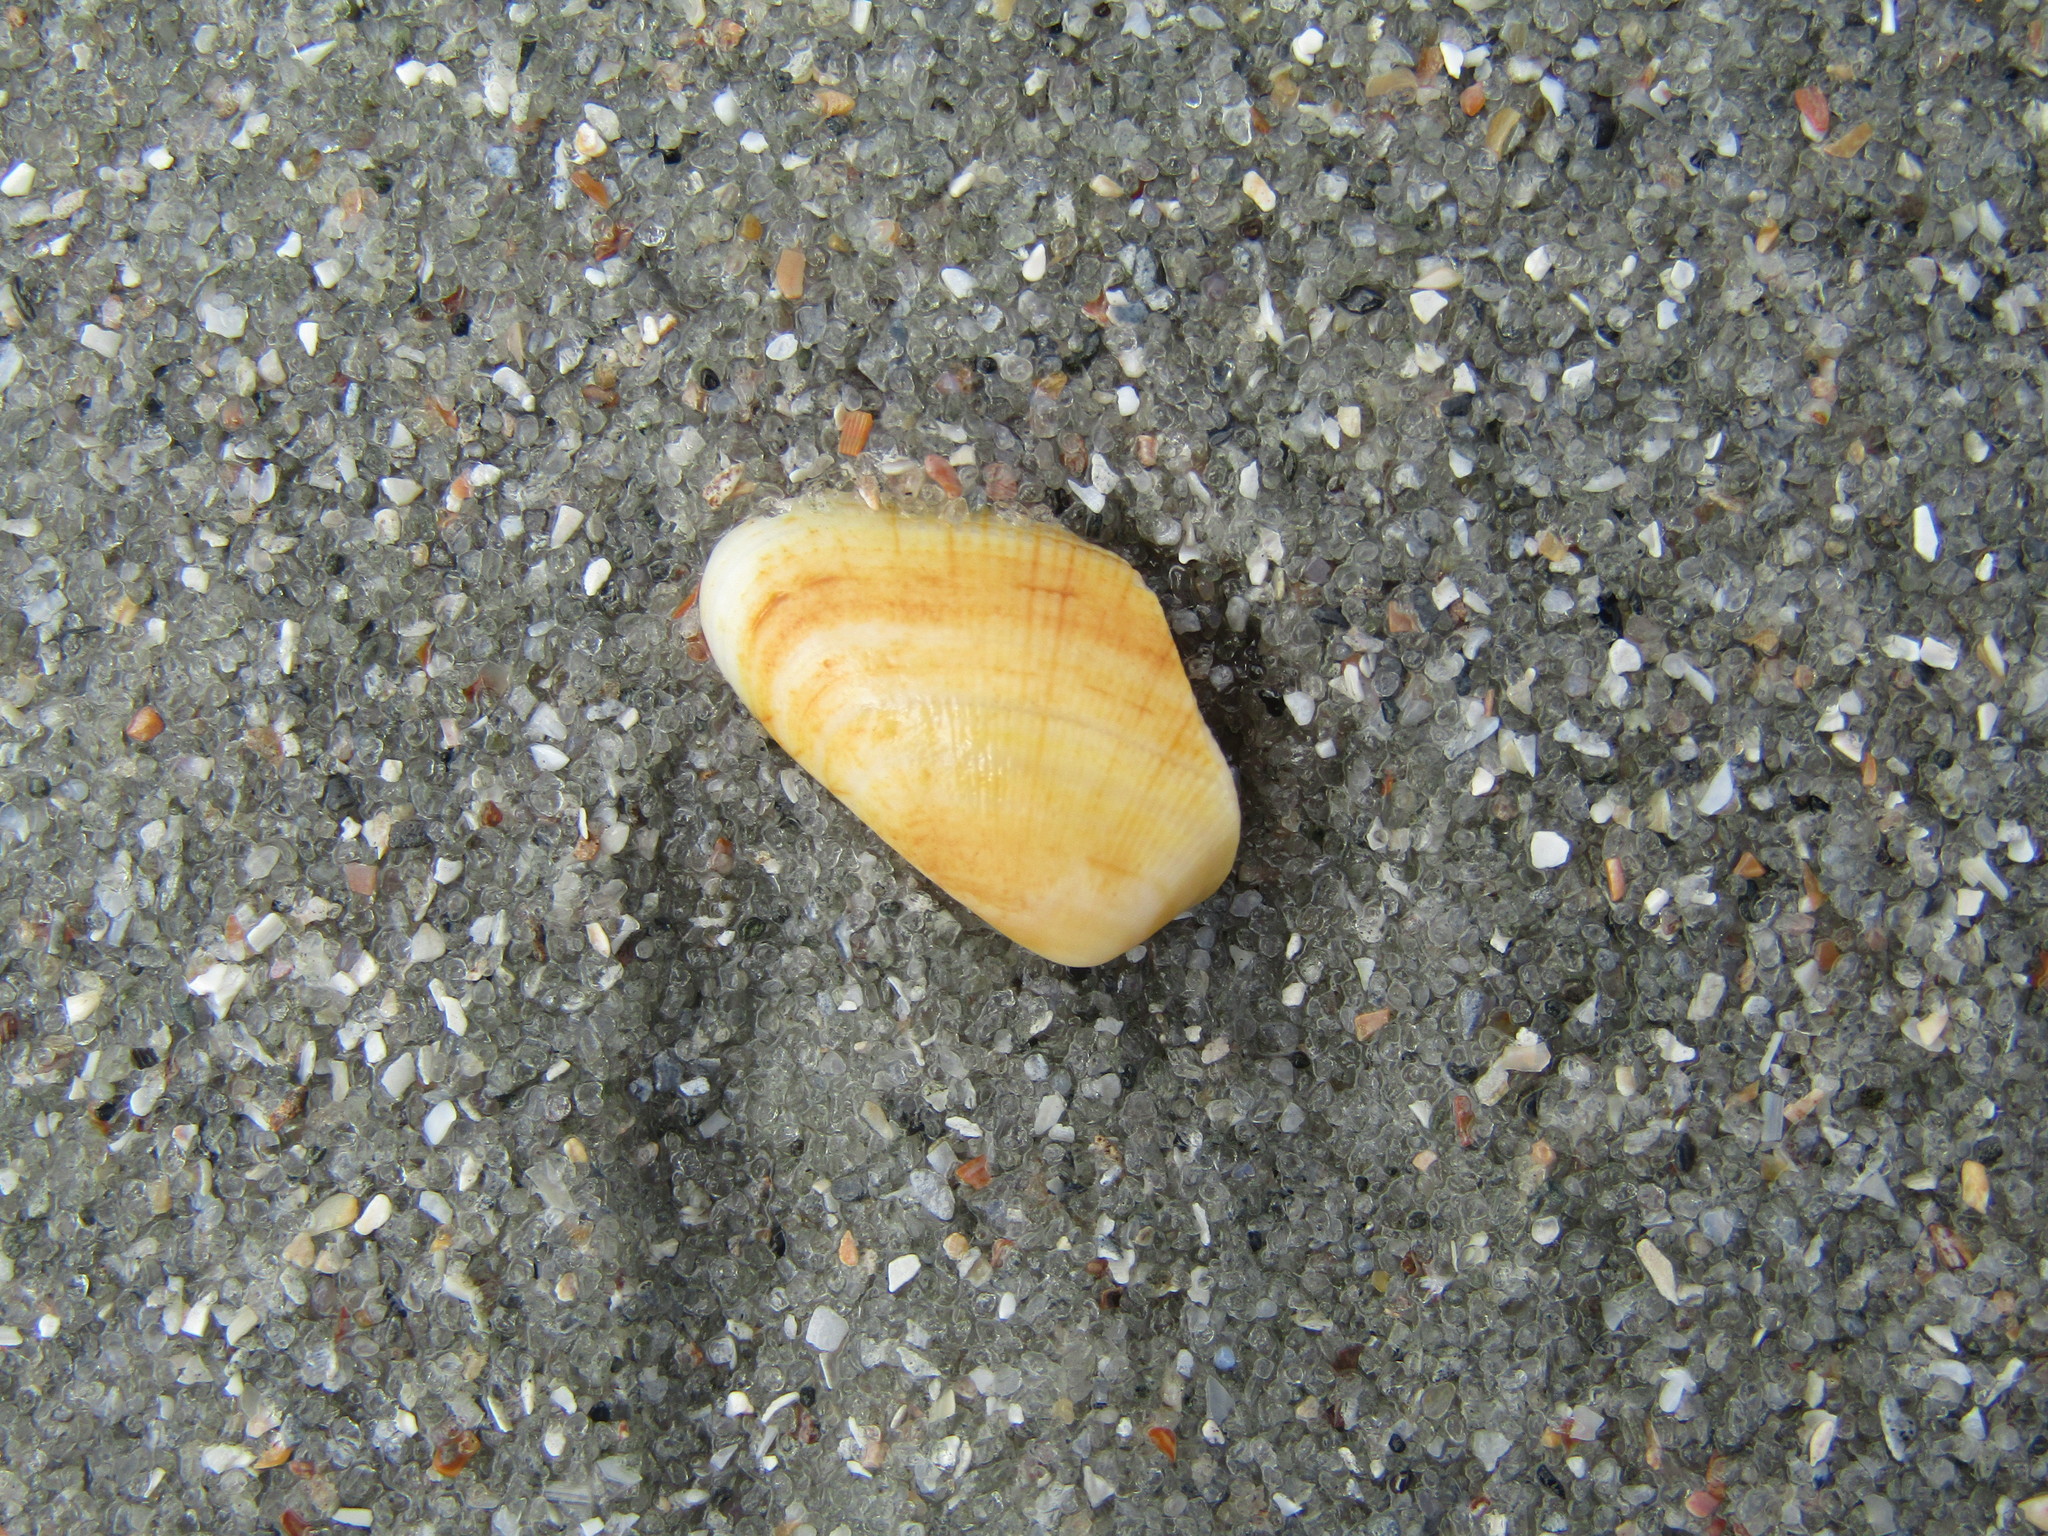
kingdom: Animalia
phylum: Mollusca
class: Bivalvia
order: Cardiida
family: Donacidae
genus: Donax
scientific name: Donax variabilis
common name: Butterfly shell
